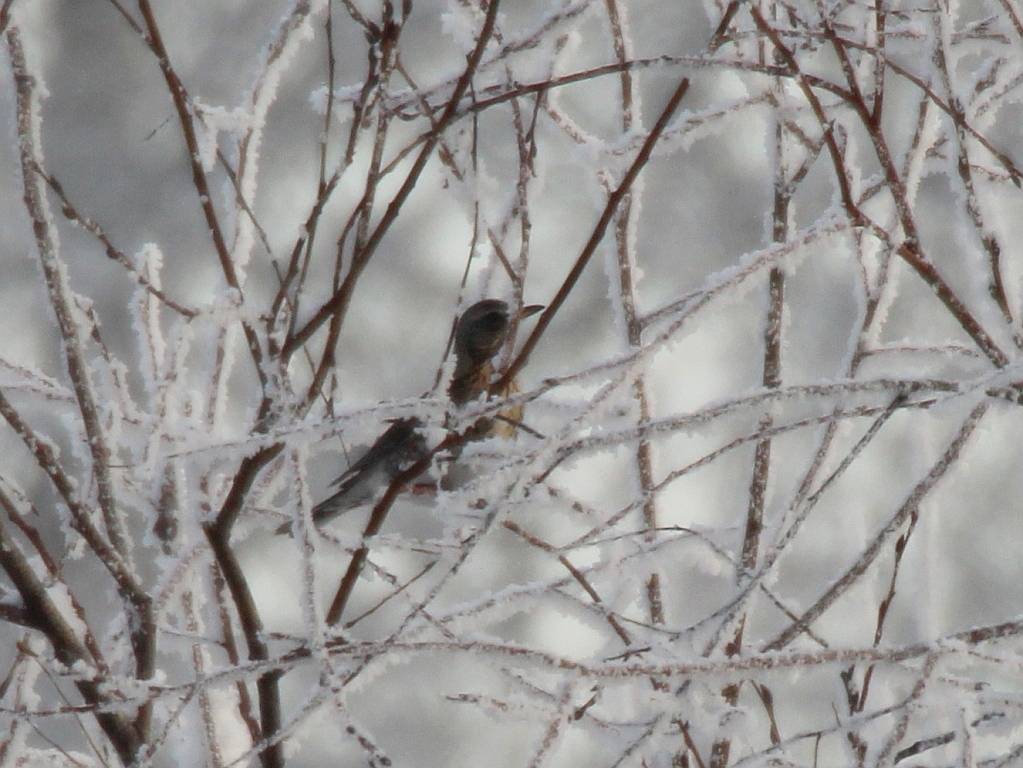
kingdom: Animalia
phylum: Chordata
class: Aves
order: Passeriformes
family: Turdidae
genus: Turdus
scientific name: Turdus pilaris
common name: Fieldfare
